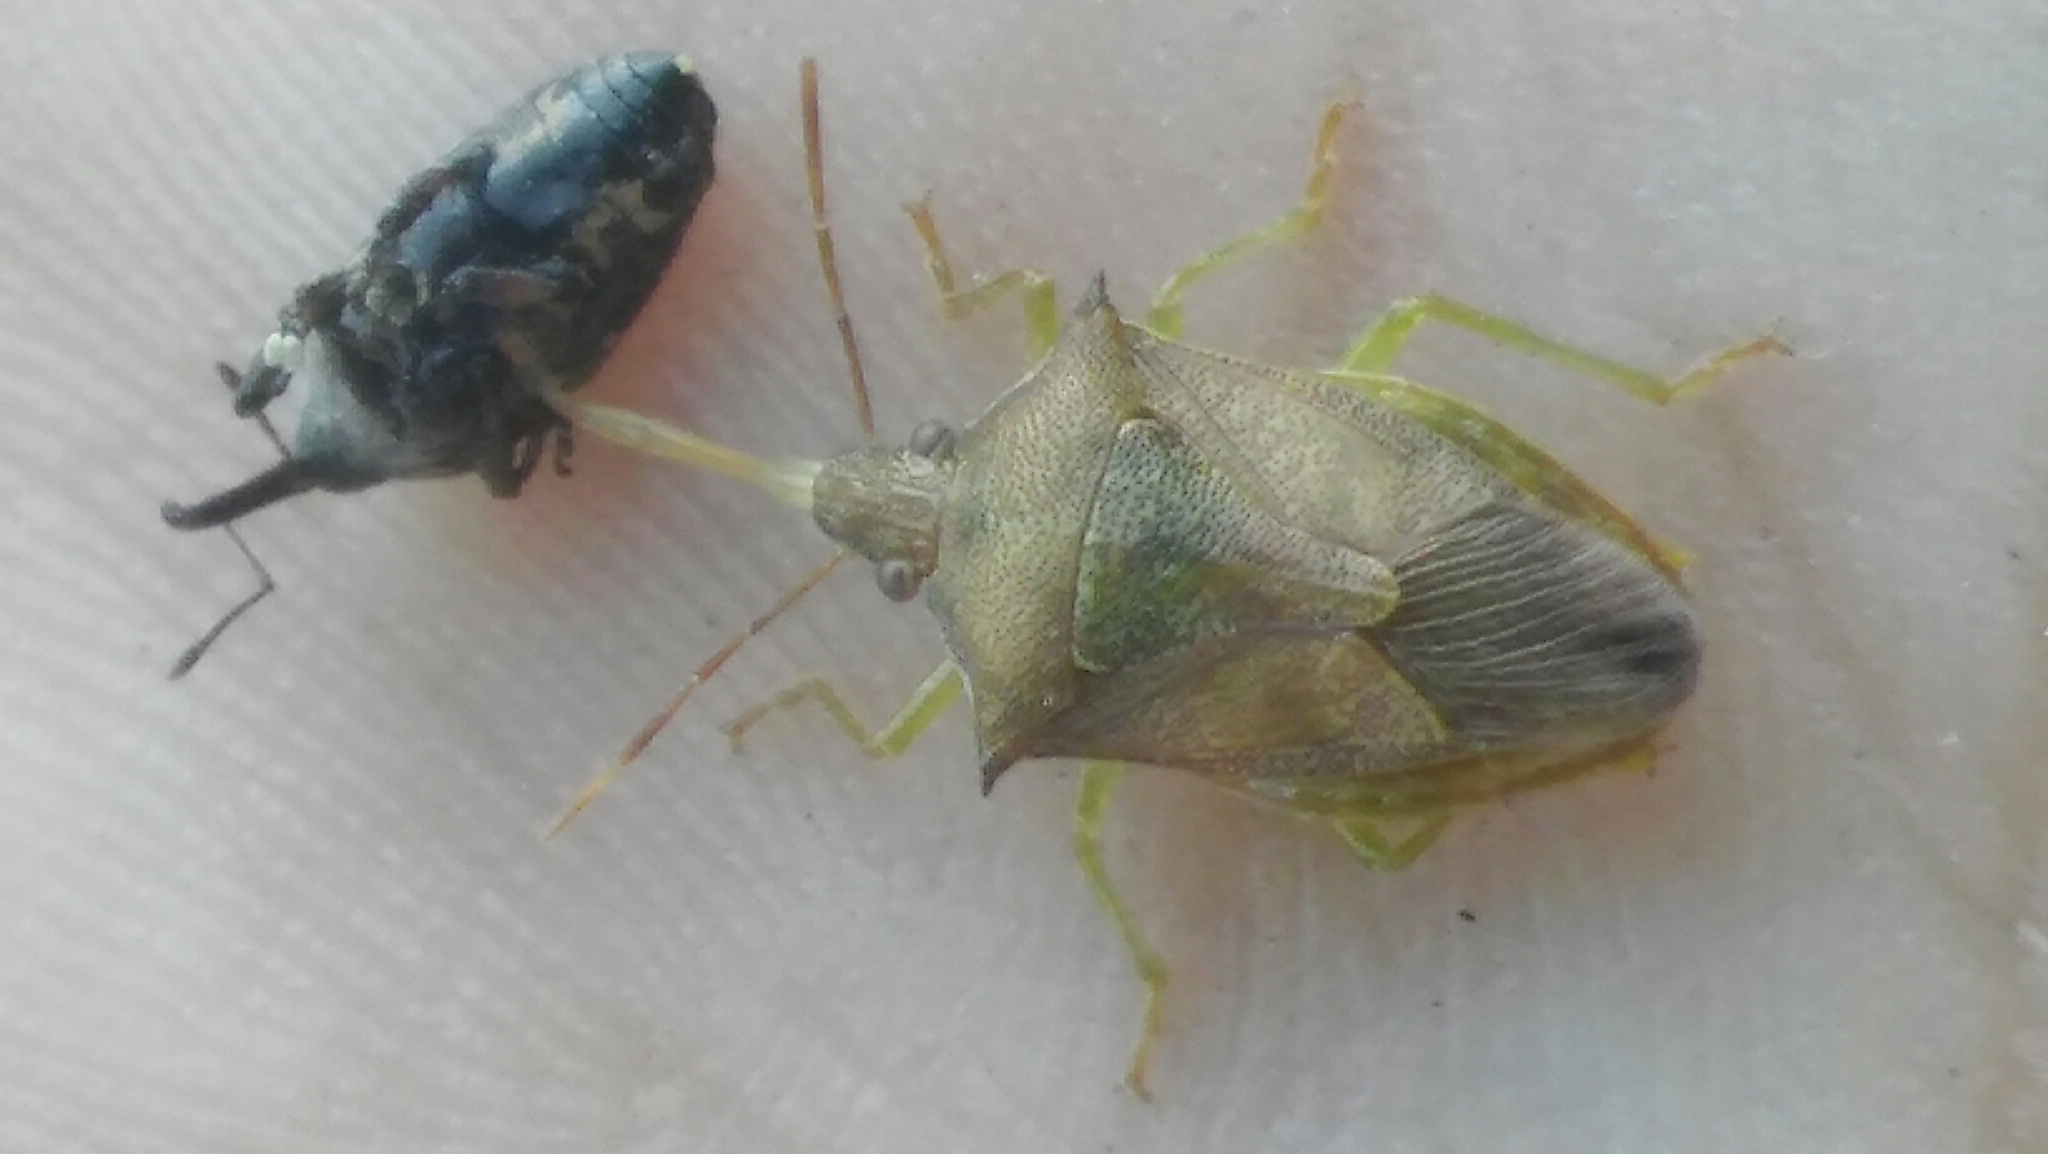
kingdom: Animalia
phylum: Arthropoda
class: Insecta
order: Hemiptera
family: Pentatomidae
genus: Supputius
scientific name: Supputius
